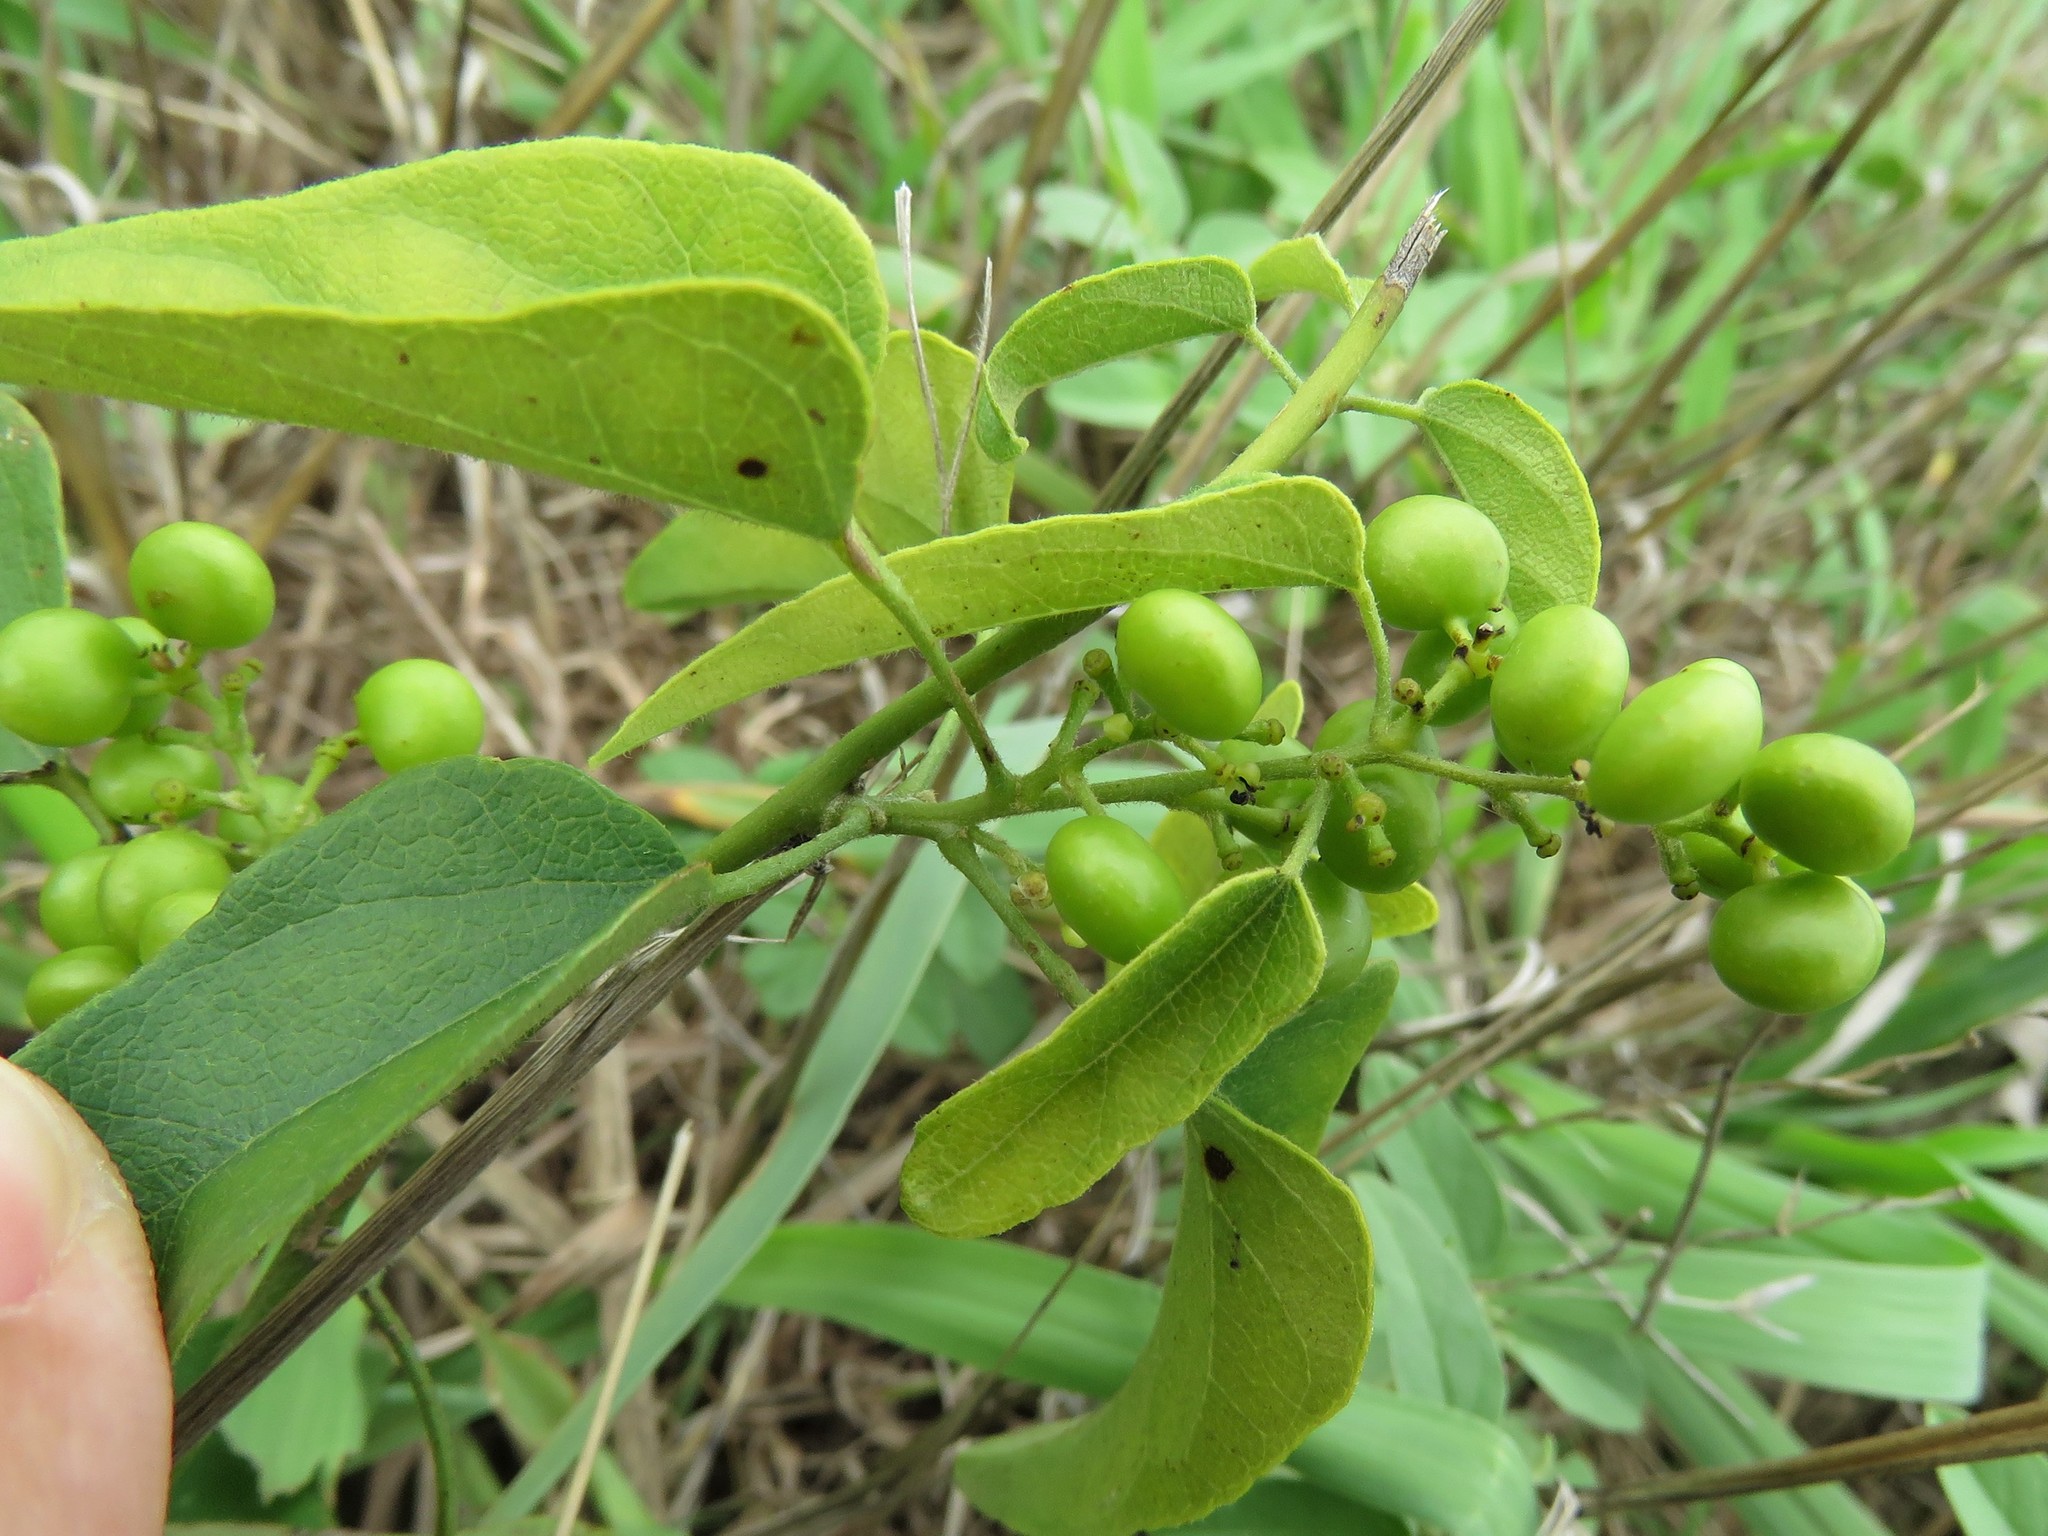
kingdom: Plantae
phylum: Tracheophyta
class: Magnoliopsida
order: Ranunculales
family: Menispermaceae
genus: Cocculus
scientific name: Cocculus carolinus
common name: Carolina moonseed
